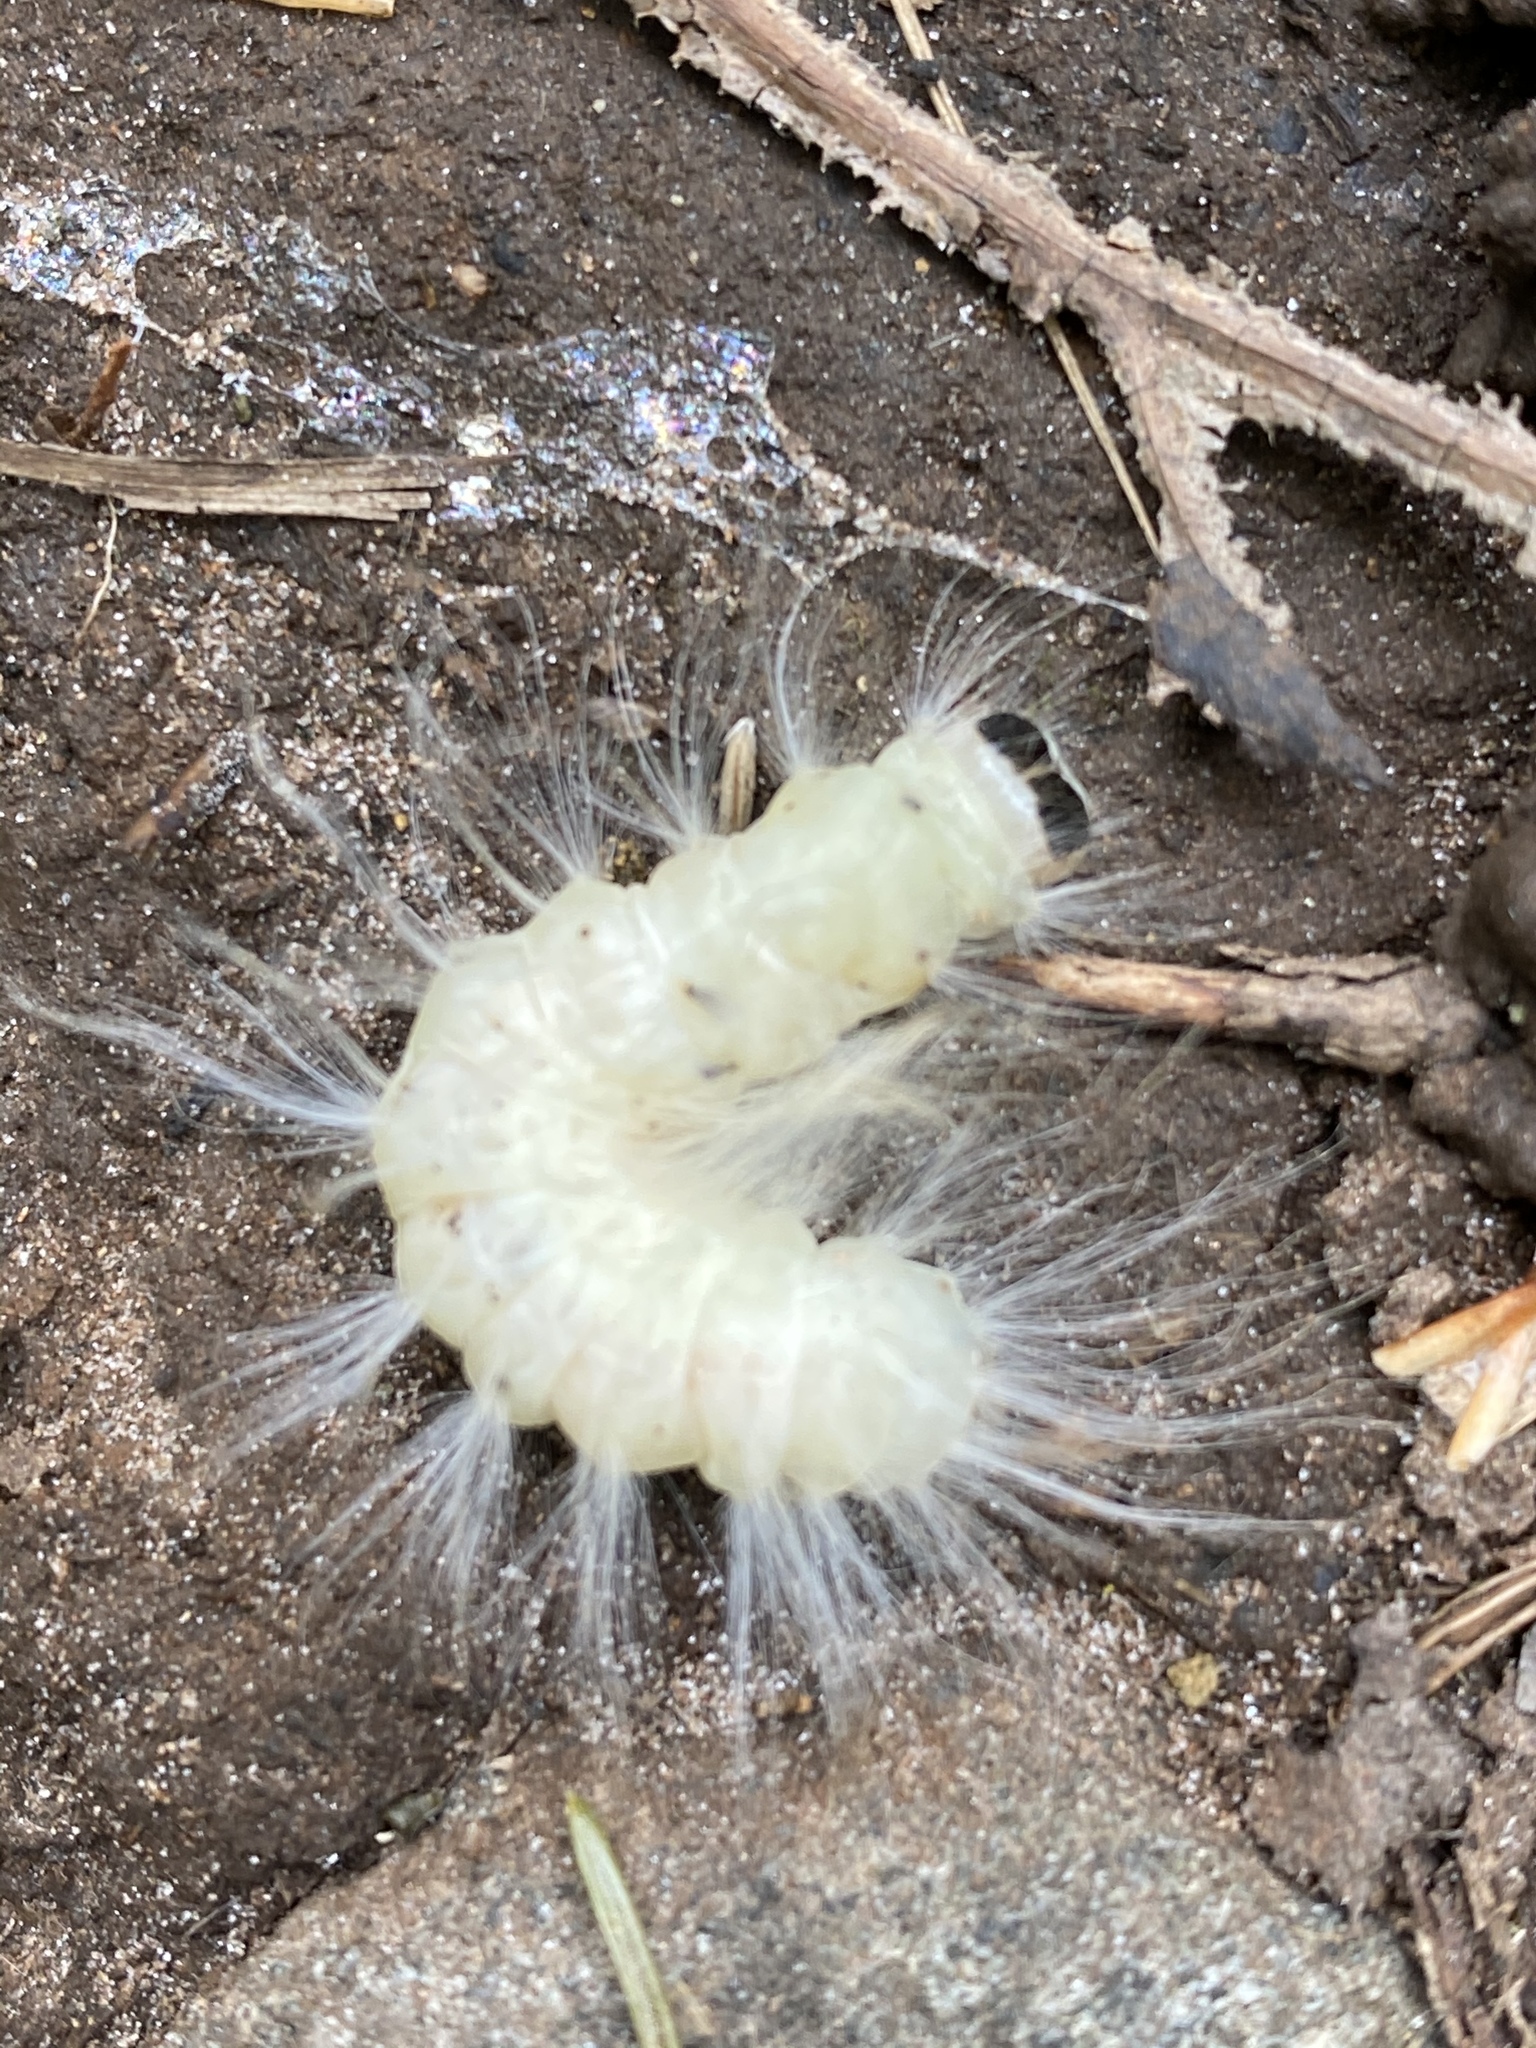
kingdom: Animalia
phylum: Arthropoda
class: Insecta
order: Lepidoptera
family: Noctuidae
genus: Charadra
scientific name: Charadra deridens
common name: Marbled tuffet
